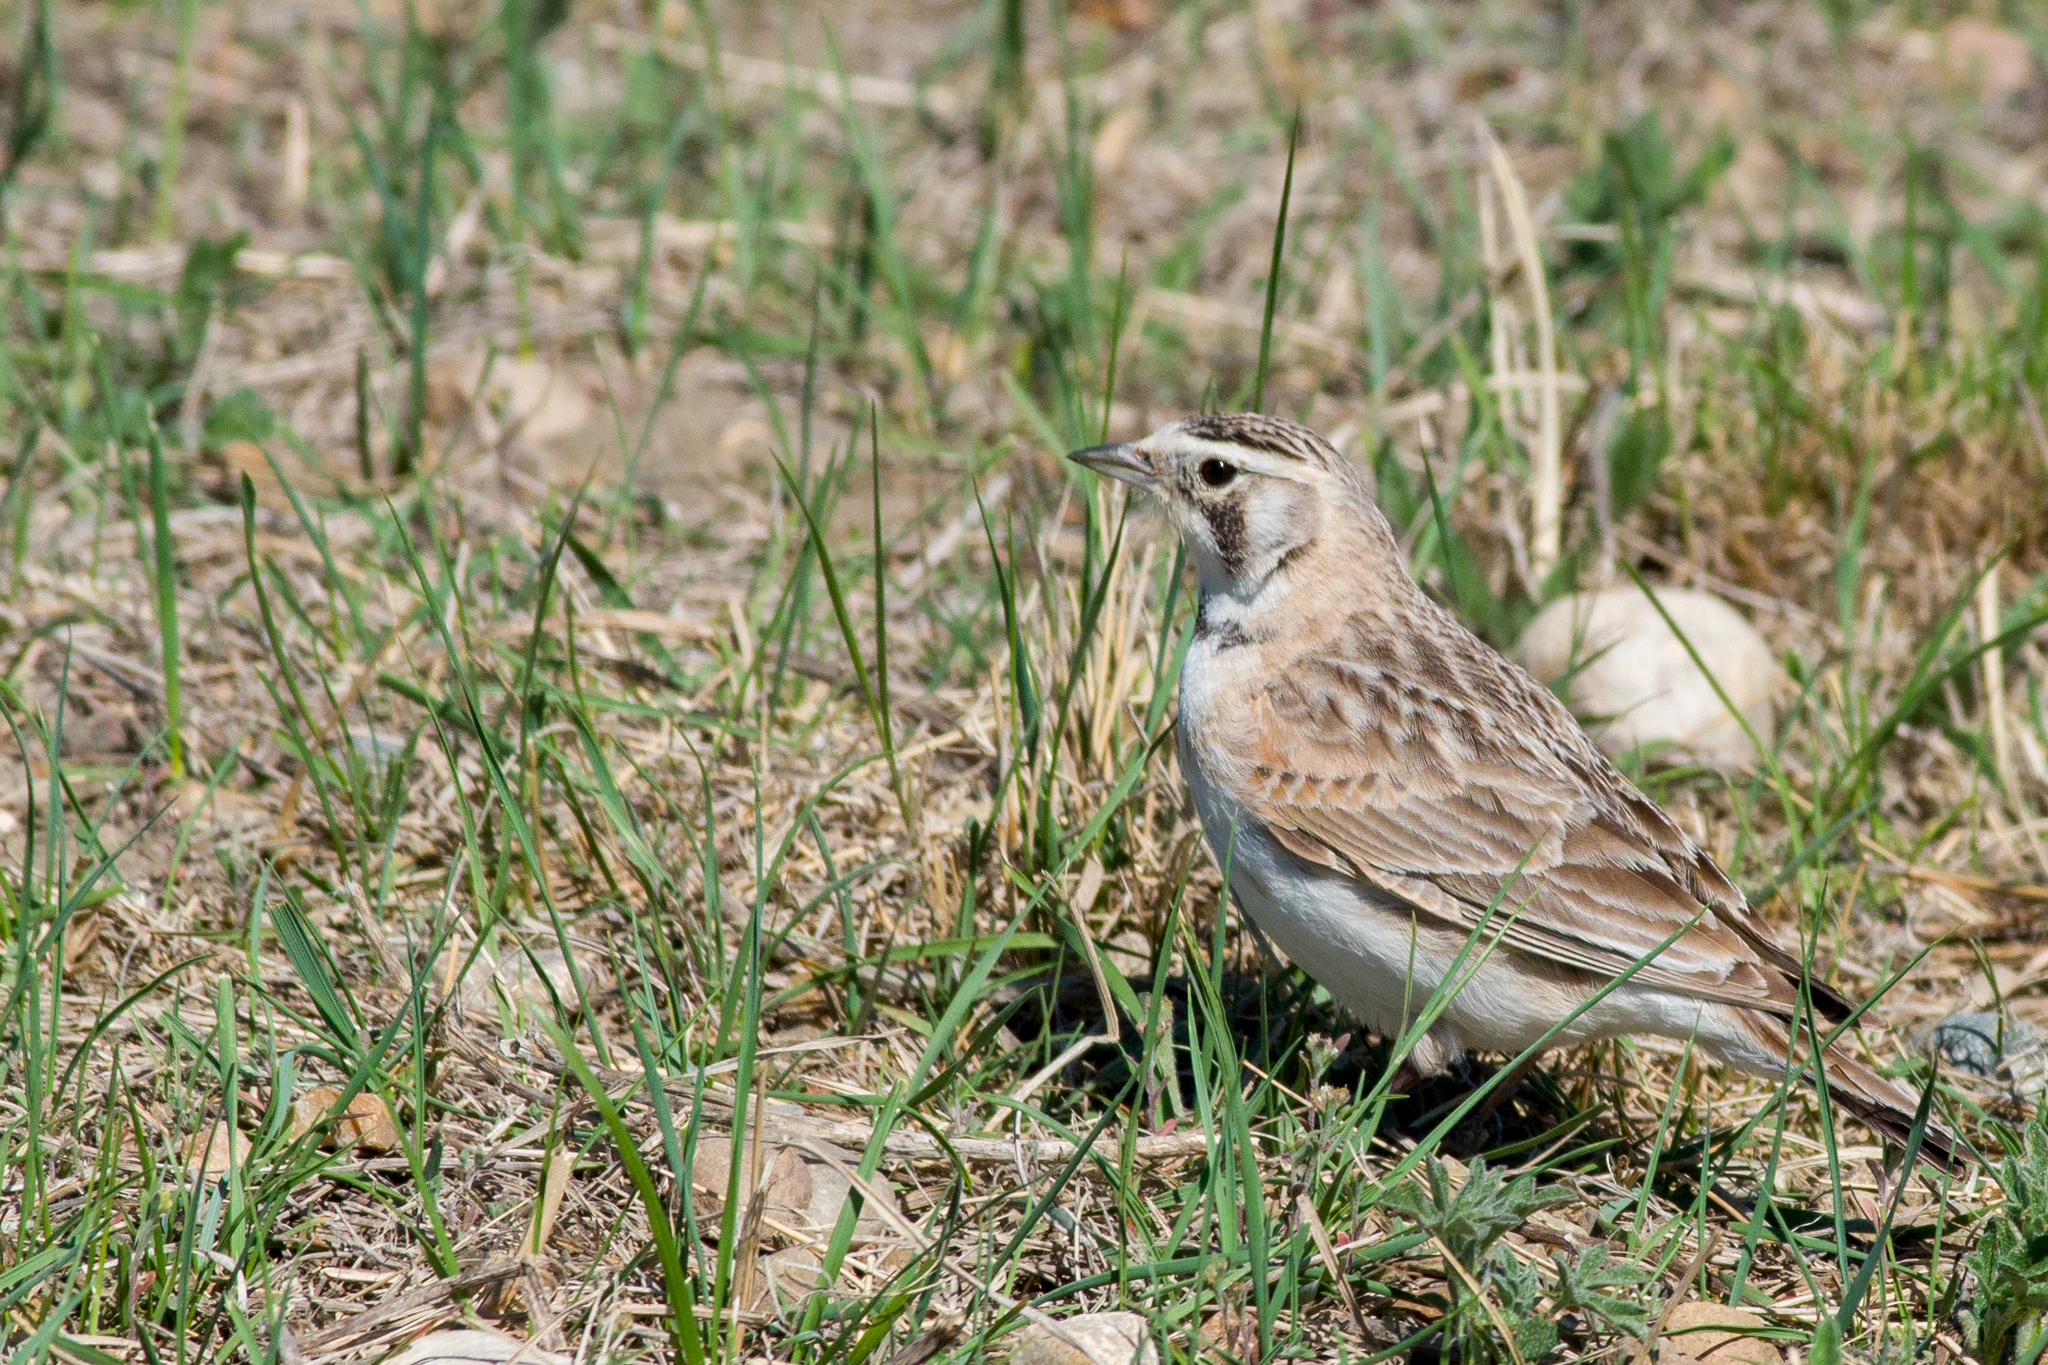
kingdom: Animalia
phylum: Chordata
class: Aves
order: Passeriformes
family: Alaudidae
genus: Eremophila
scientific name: Eremophila alpestris
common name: Horned lark
